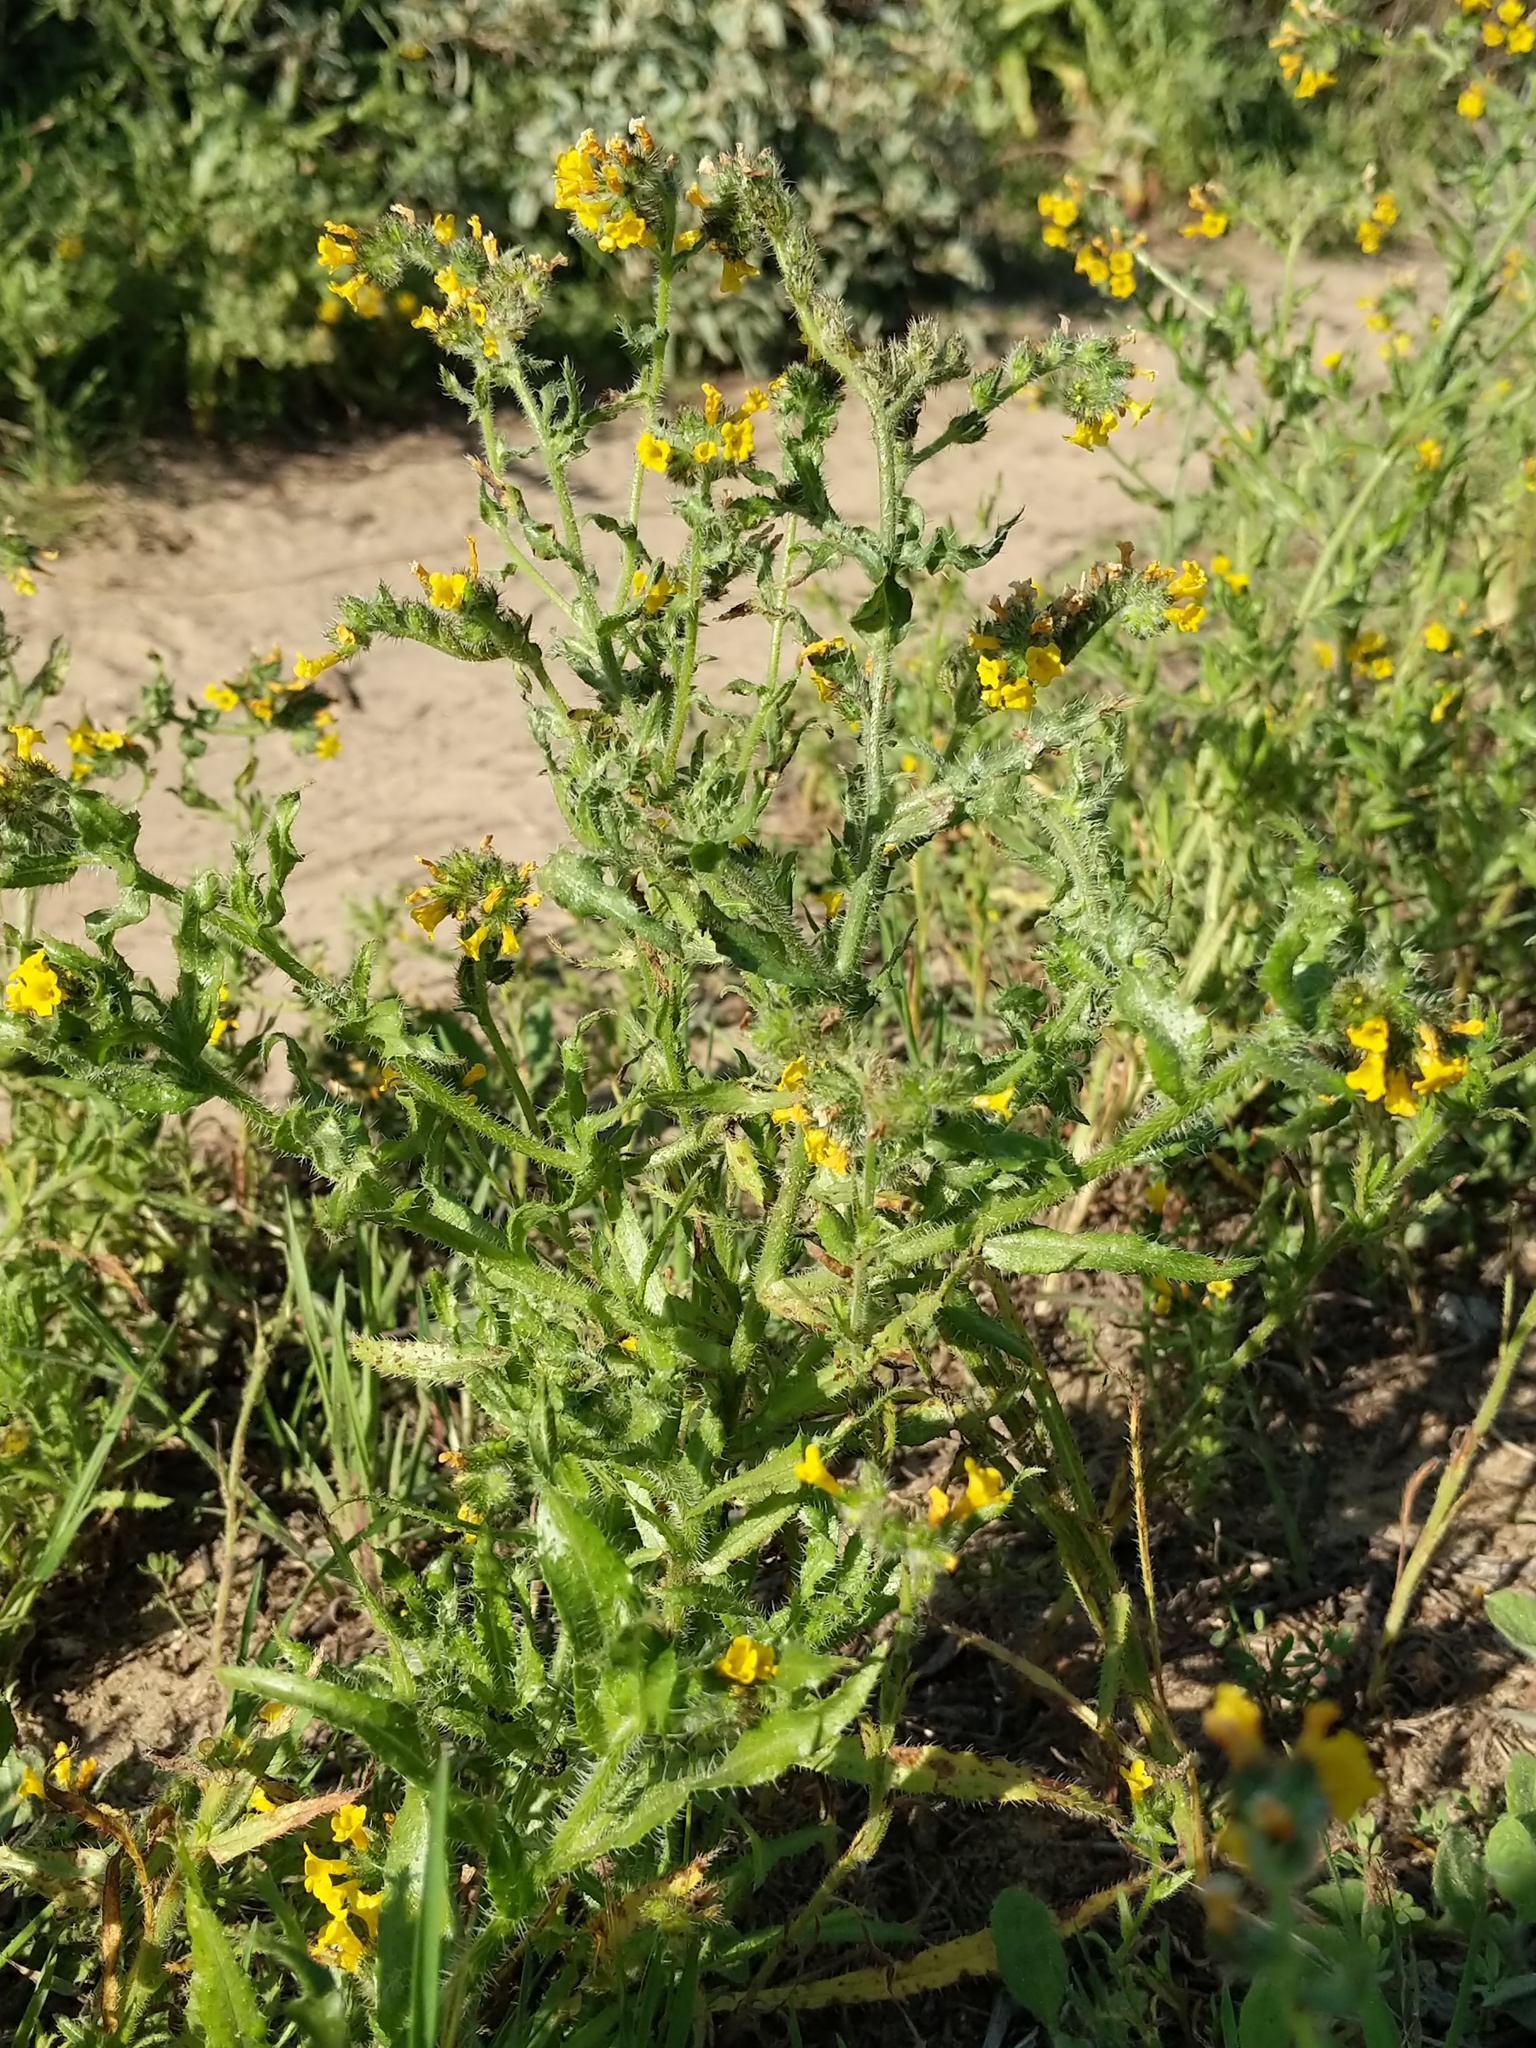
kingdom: Plantae
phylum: Tracheophyta
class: Magnoliopsida
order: Boraginales
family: Boraginaceae
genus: Amsinckia
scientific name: Amsinckia spectabilis
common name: Seaside fiddleneck
